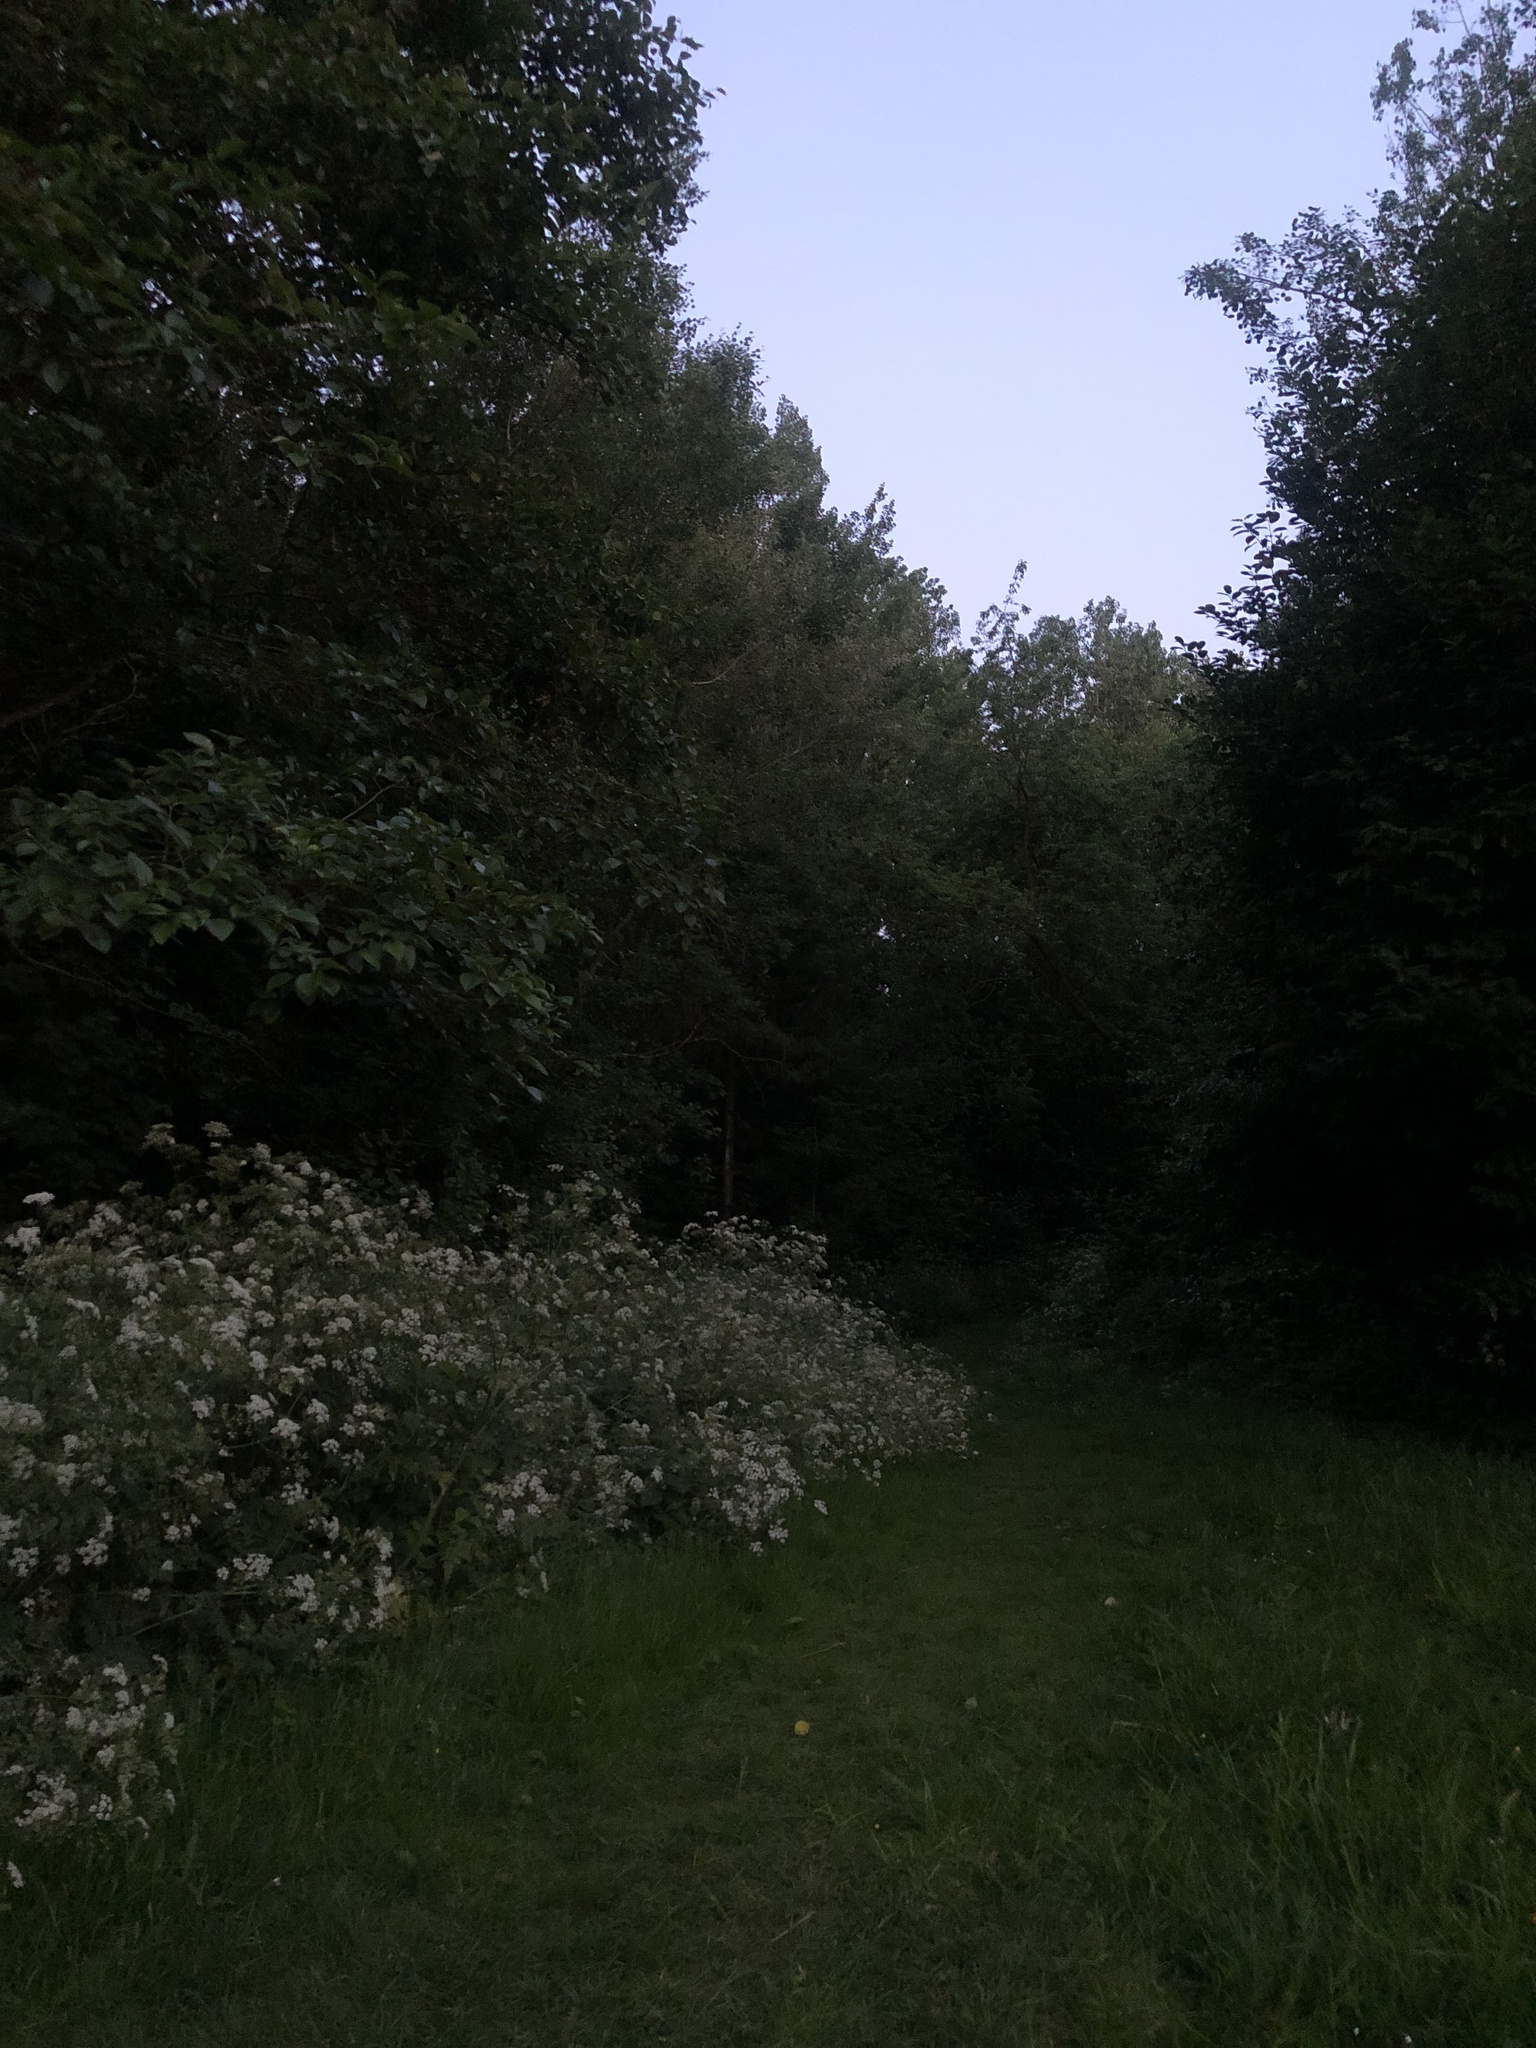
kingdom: Plantae
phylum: Tracheophyta
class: Magnoliopsida
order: Apiales
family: Apiaceae
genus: Anthriscus
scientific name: Anthriscus sylvestris
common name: Cow parsley
